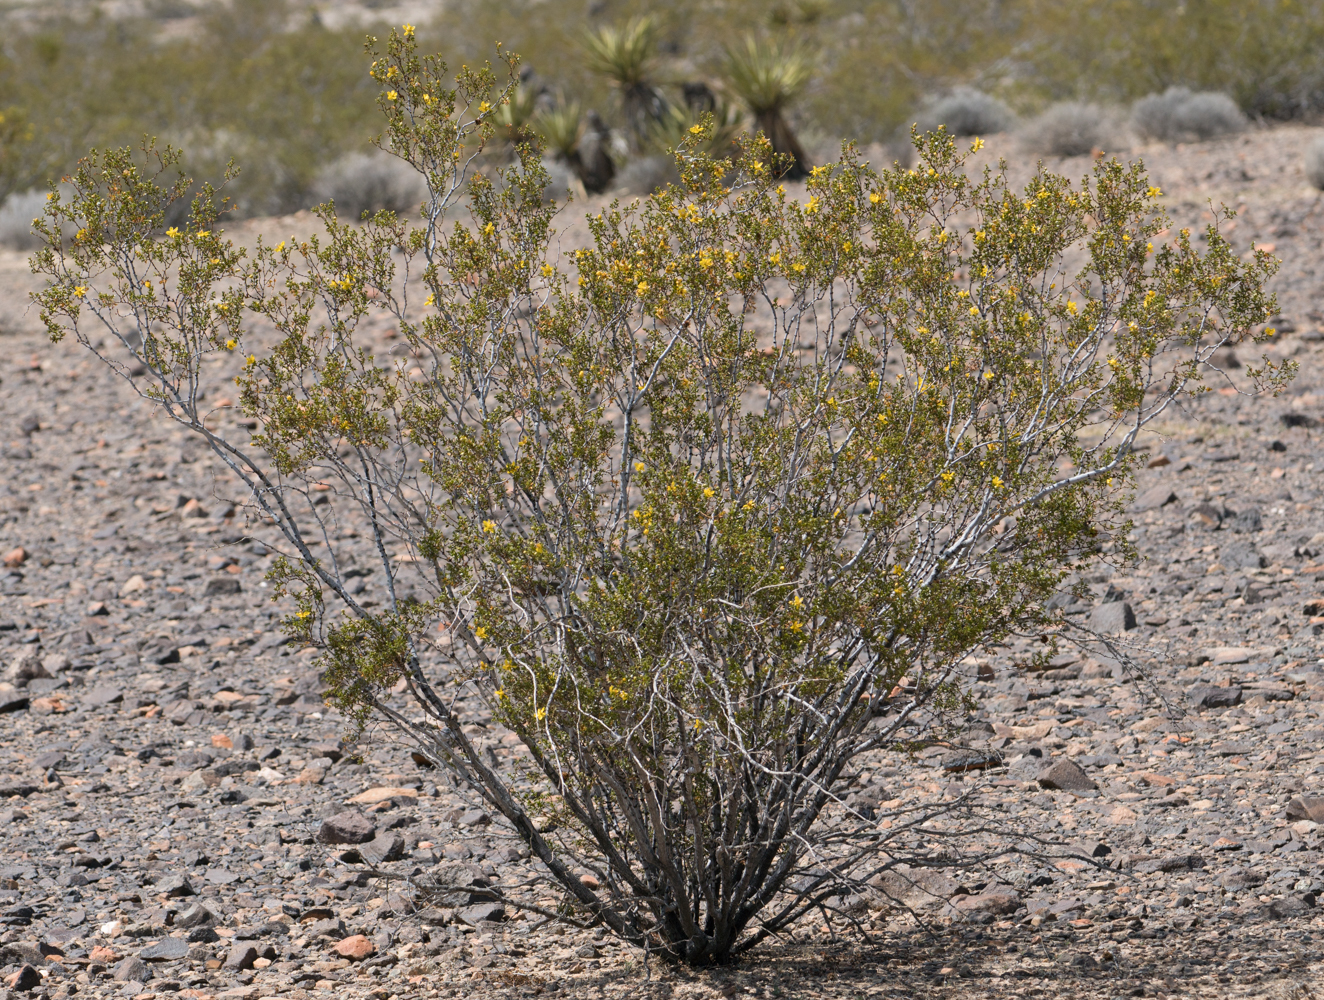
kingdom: Plantae
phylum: Tracheophyta
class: Magnoliopsida
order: Zygophyllales
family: Zygophyllaceae
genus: Larrea
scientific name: Larrea tridentata
